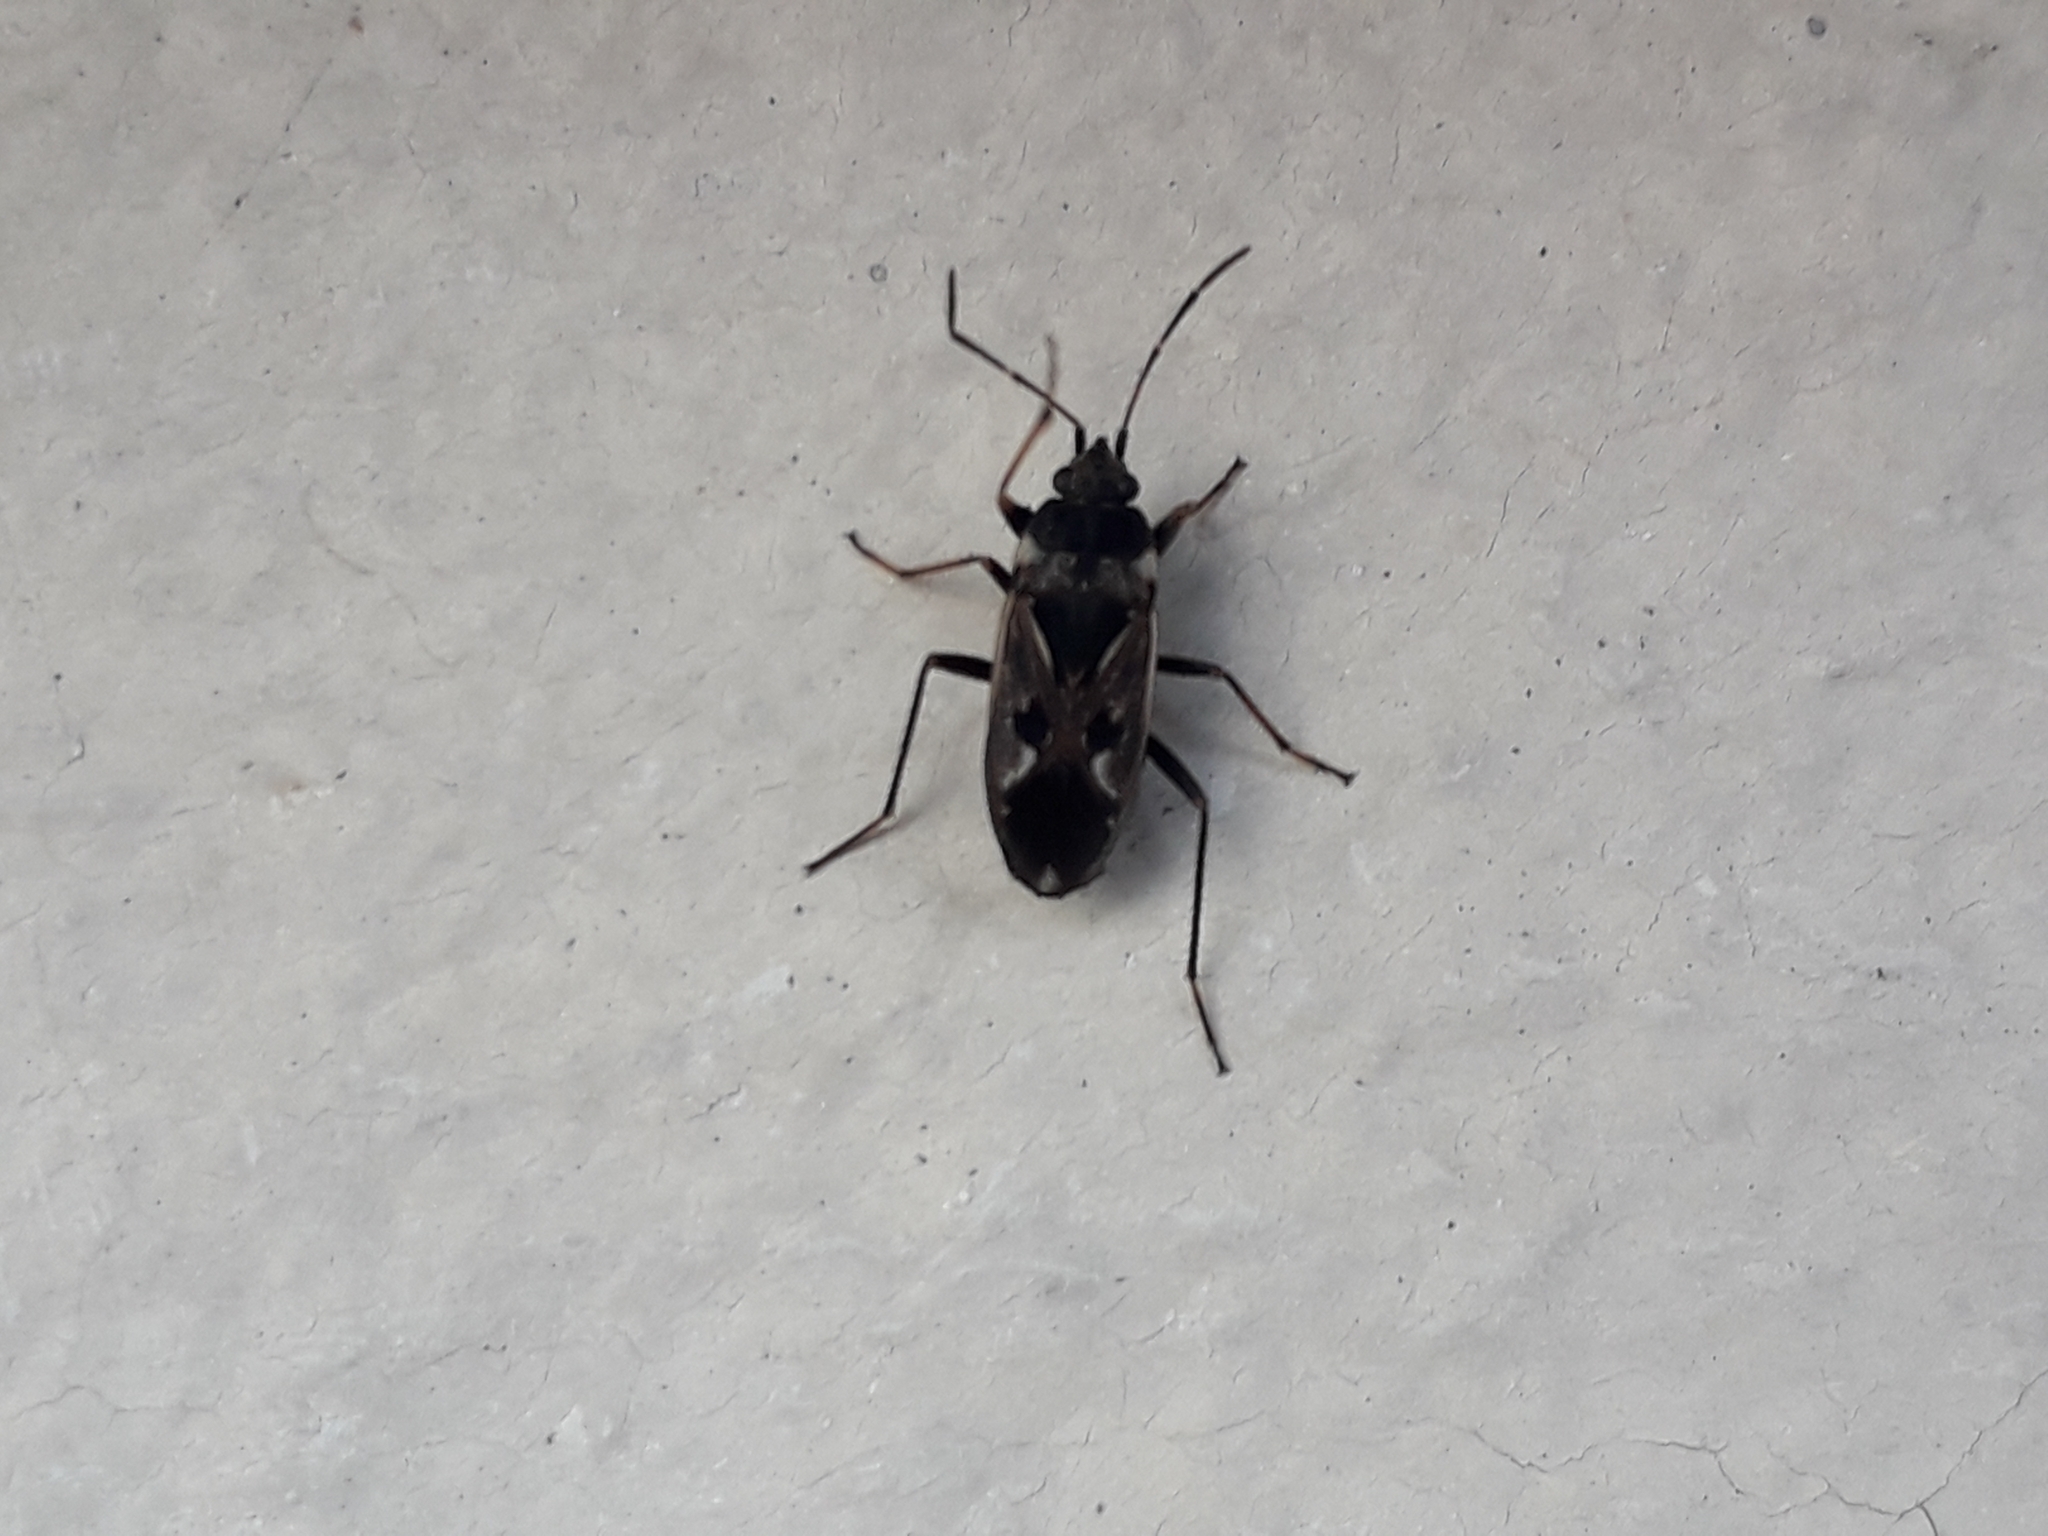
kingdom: Animalia
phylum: Arthropoda
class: Insecta
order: Hemiptera
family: Rhyparochromidae
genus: Rhyparochromus
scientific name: Rhyparochromus vulgaris
